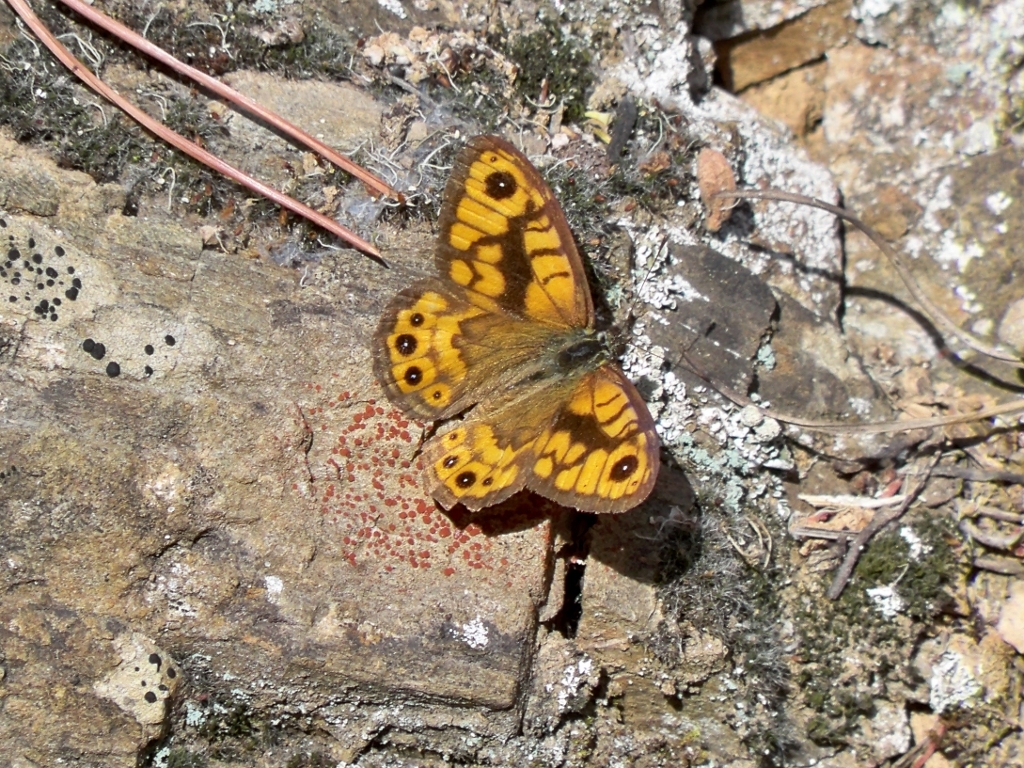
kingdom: Animalia
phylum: Arthropoda
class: Insecta
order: Lepidoptera
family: Nymphalidae
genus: Pararge
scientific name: Pararge Lasiommata megera
